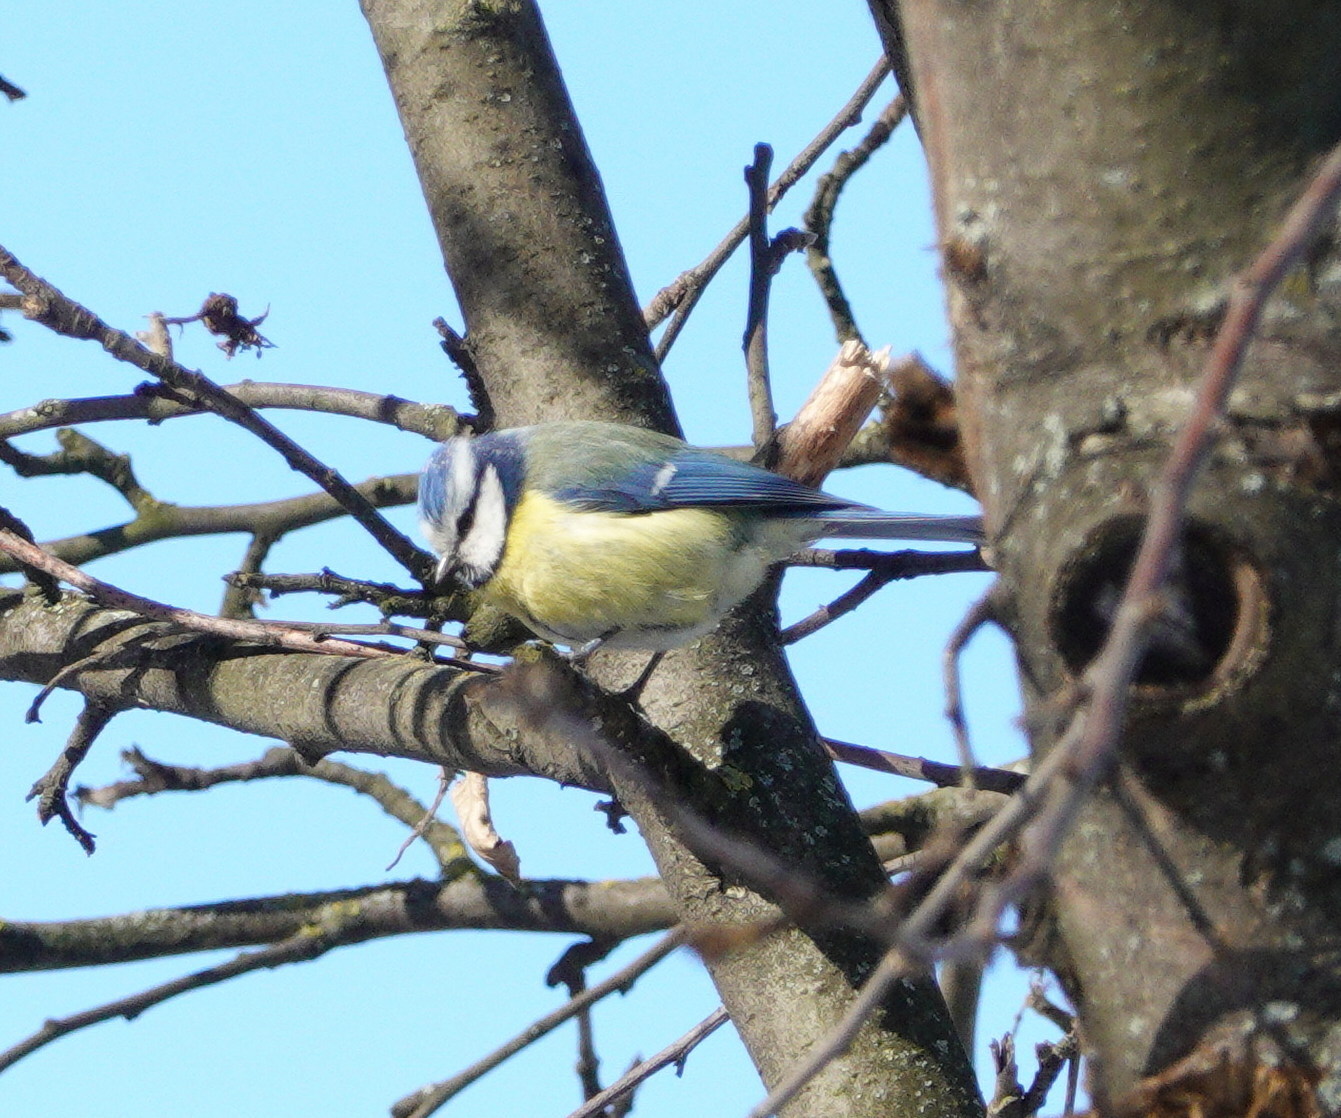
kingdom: Animalia
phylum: Chordata
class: Aves
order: Passeriformes
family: Paridae
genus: Cyanistes
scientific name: Cyanistes caeruleus
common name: Eurasian blue tit
